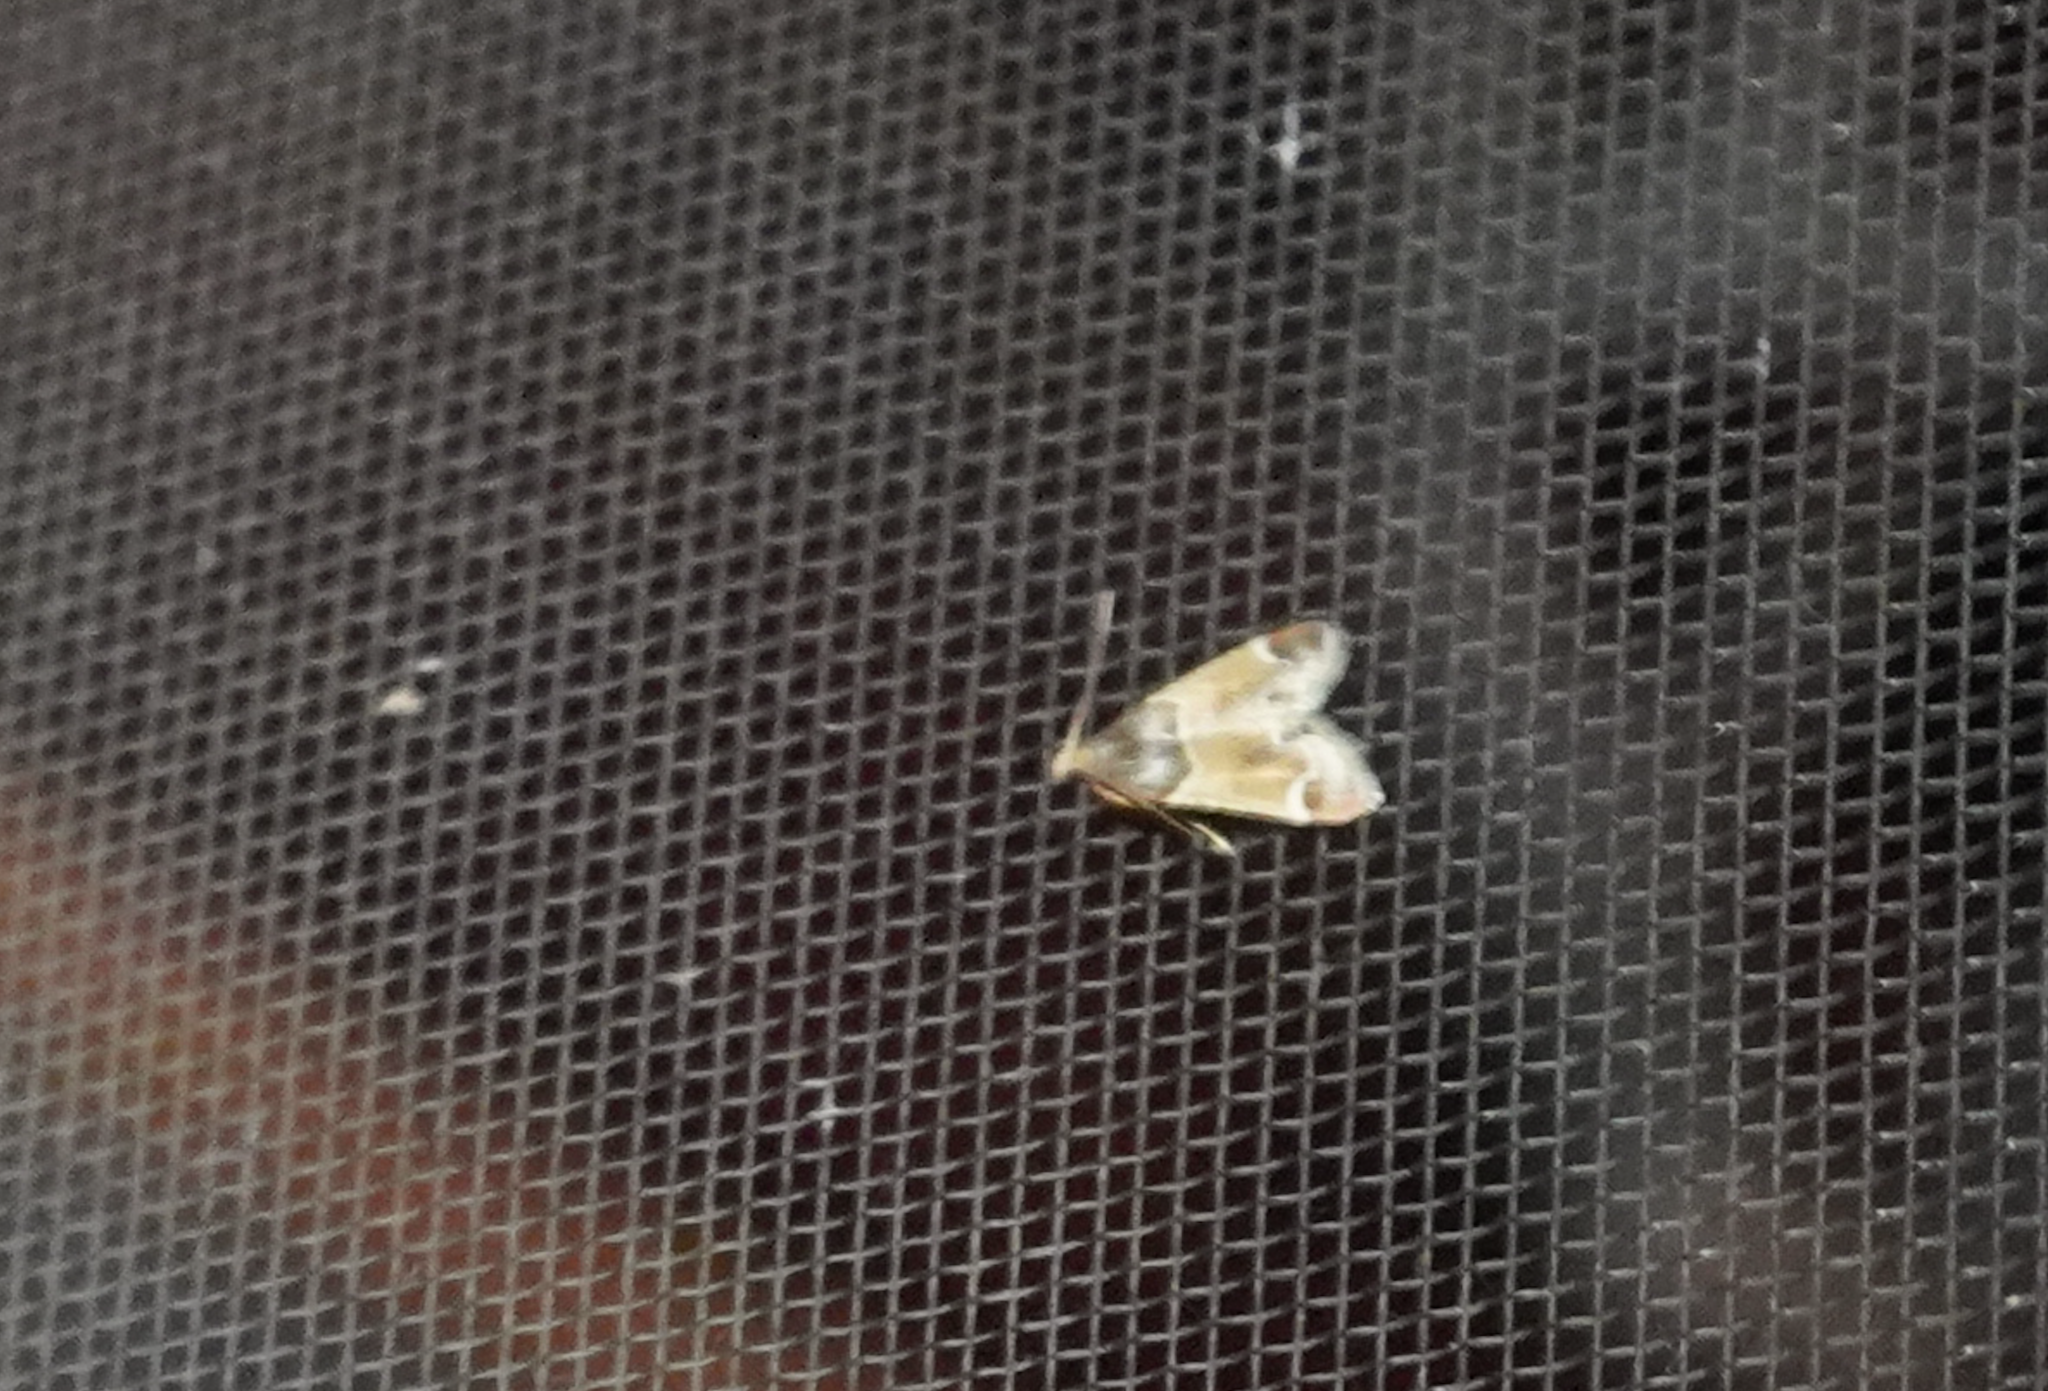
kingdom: Animalia
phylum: Arthropoda
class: Insecta
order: Lepidoptera
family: Pyralidae
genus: Pyralis
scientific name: Pyralis farinalis
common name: Meal moth
